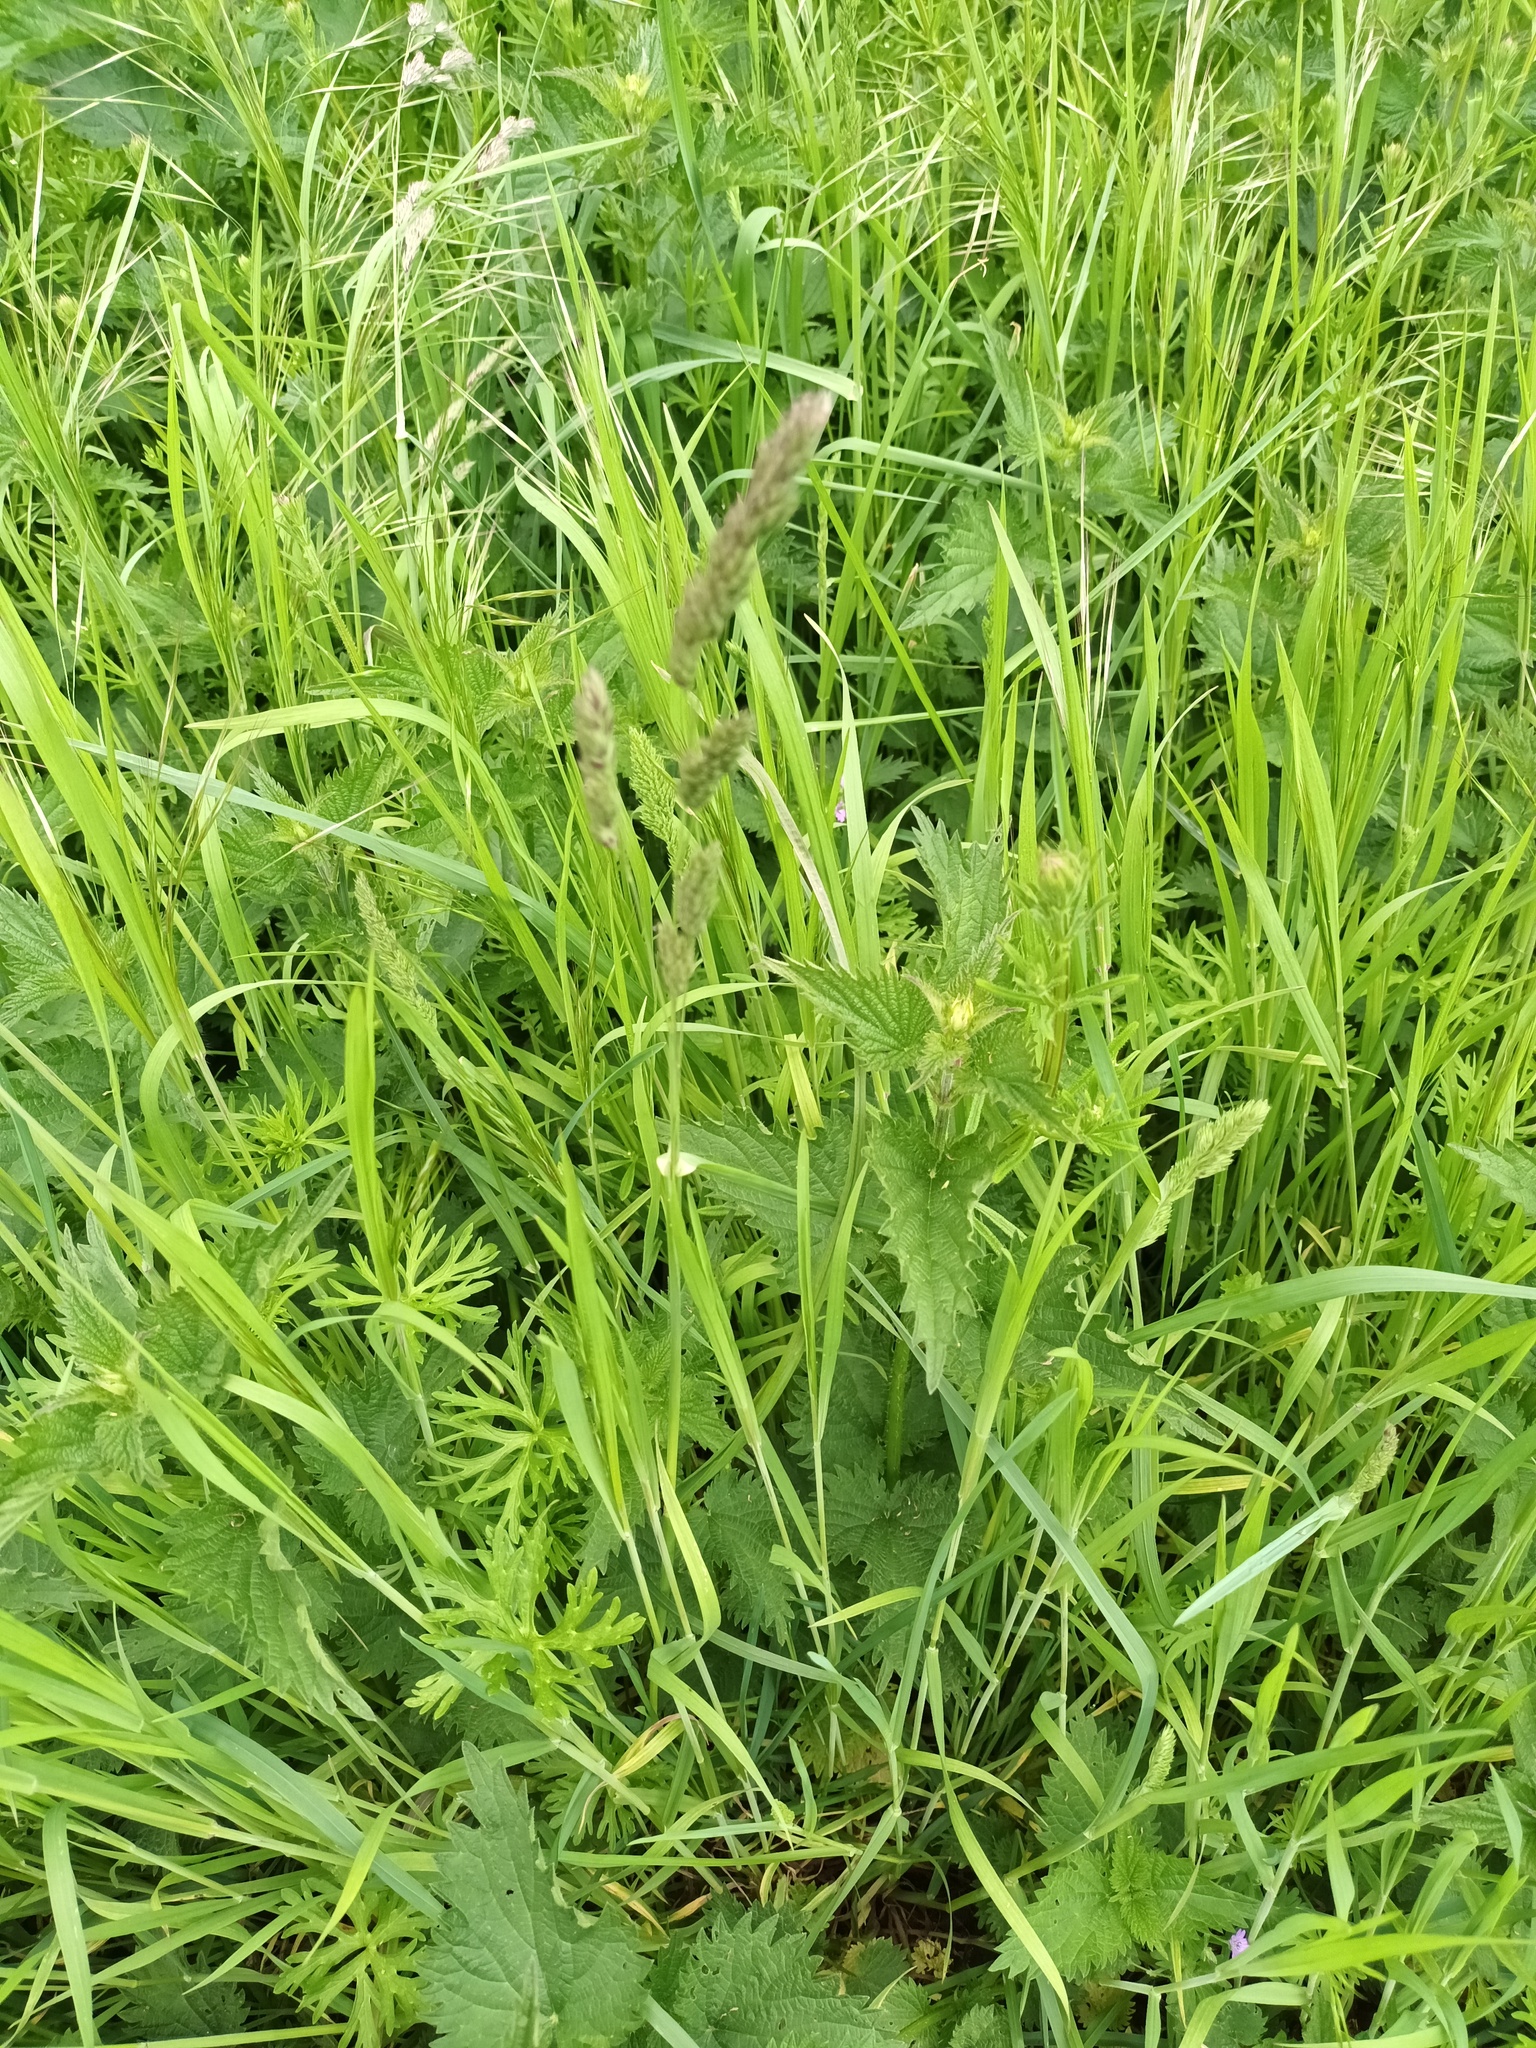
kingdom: Plantae
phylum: Tracheophyta
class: Liliopsida
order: Poales
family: Poaceae
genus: Dactylis
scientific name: Dactylis glomerata
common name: Orchardgrass
